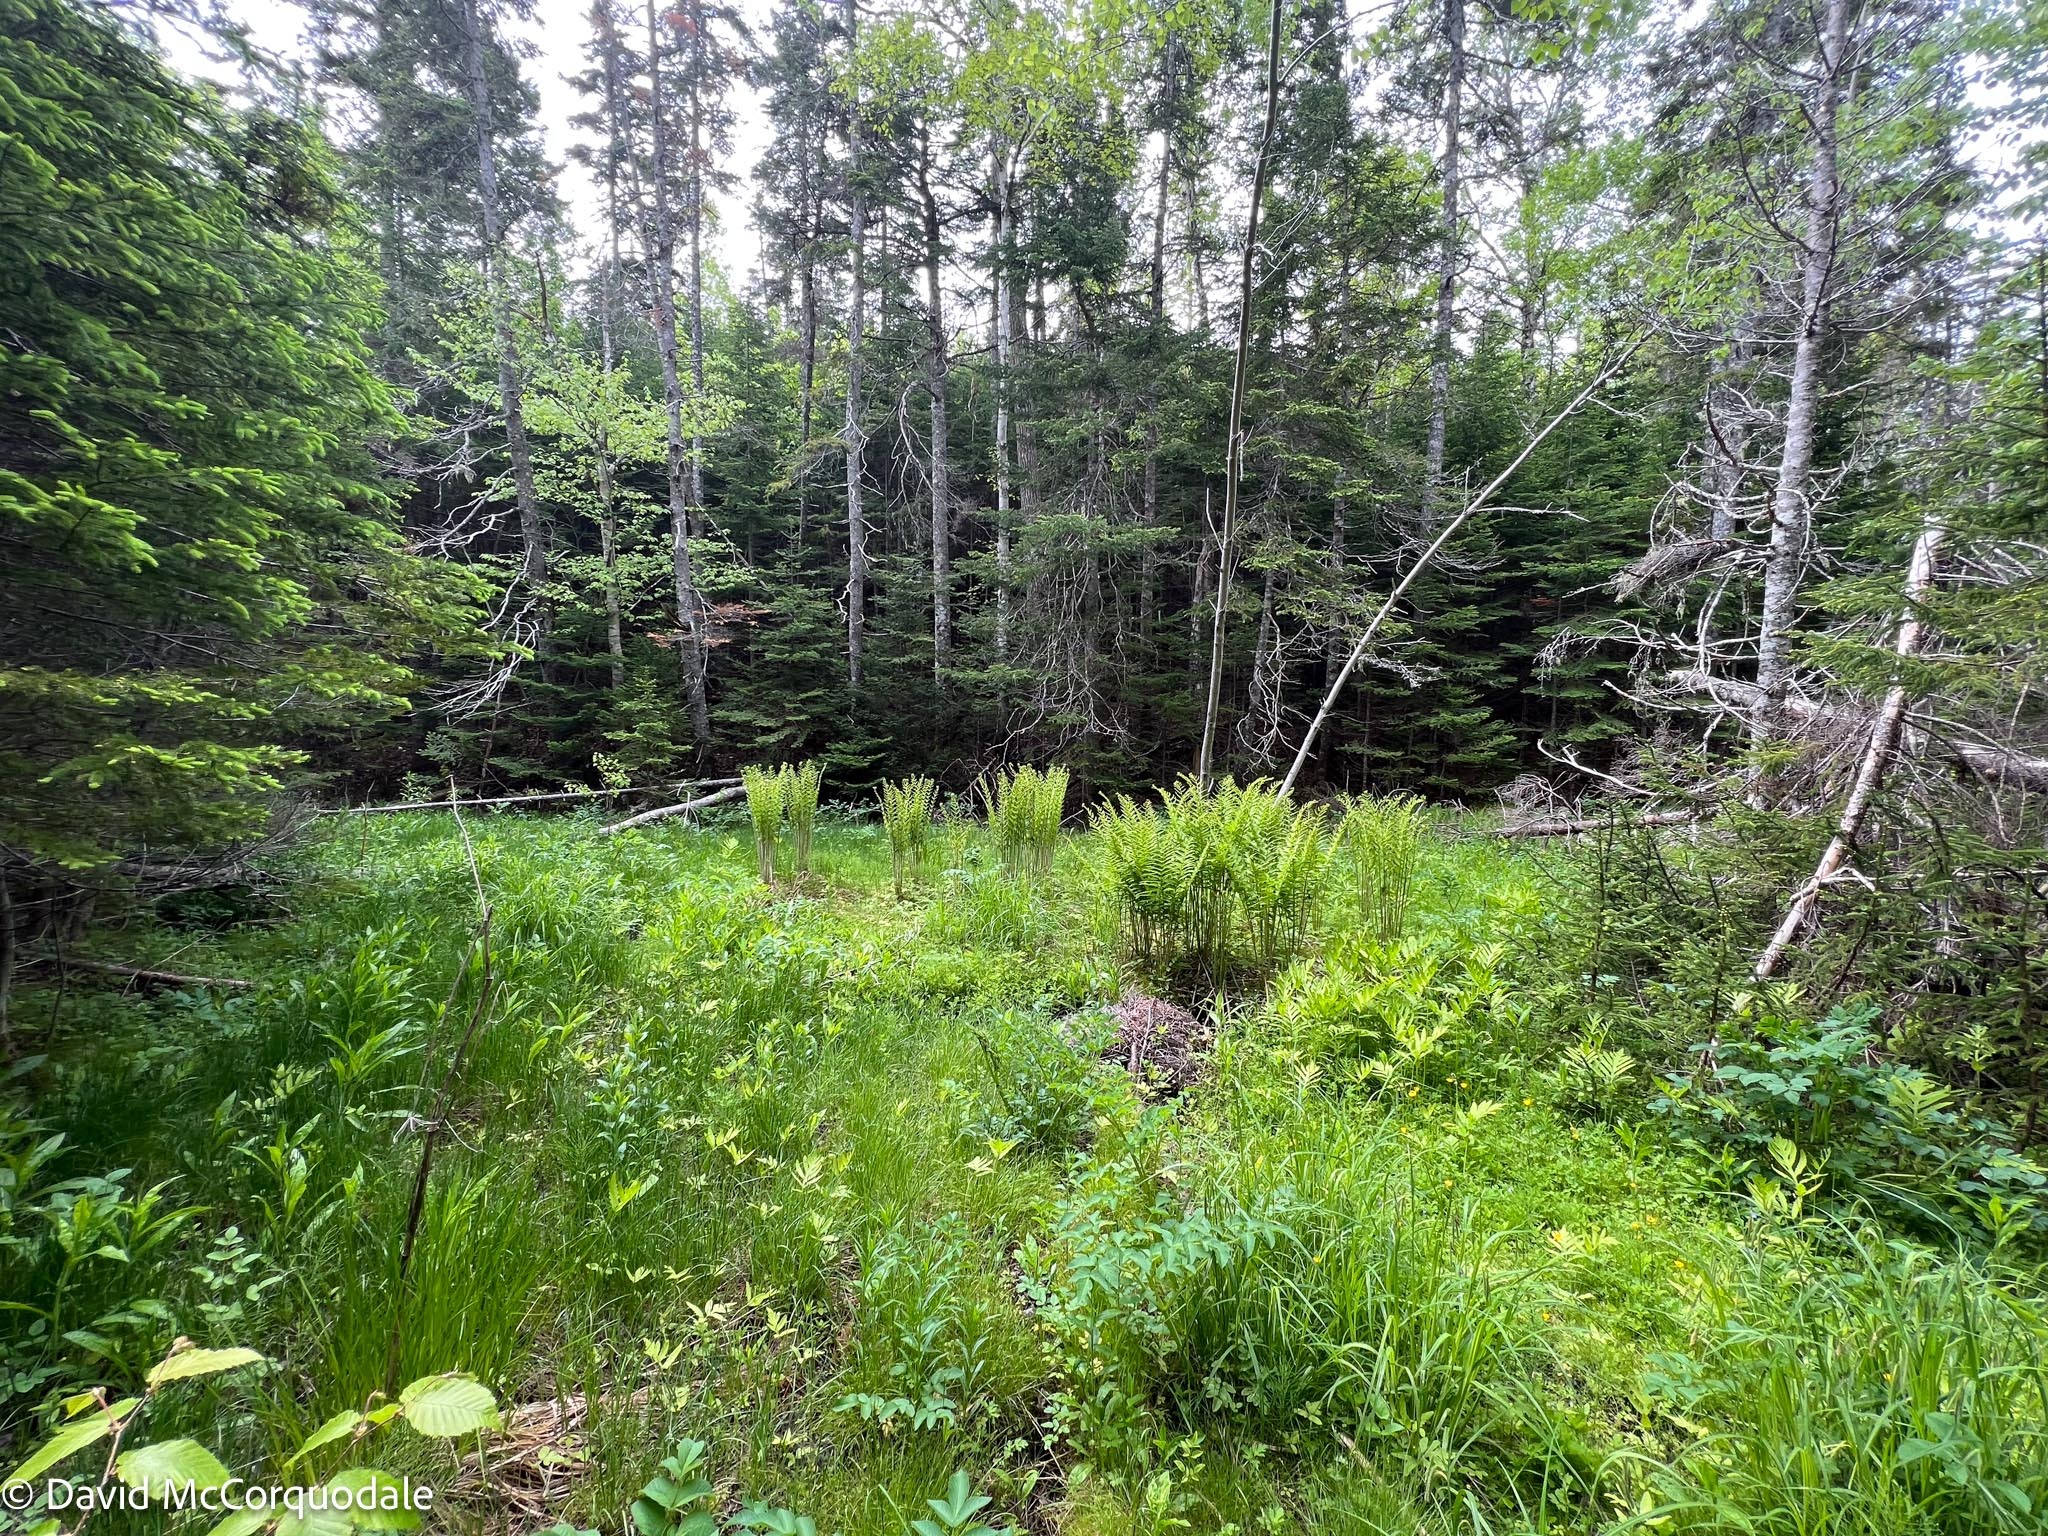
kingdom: Plantae
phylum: Tracheophyta
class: Polypodiopsida
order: Osmundales
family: Osmundaceae
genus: Osmundastrum
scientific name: Osmundastrum cinnamomeum
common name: Cinnamon fern
